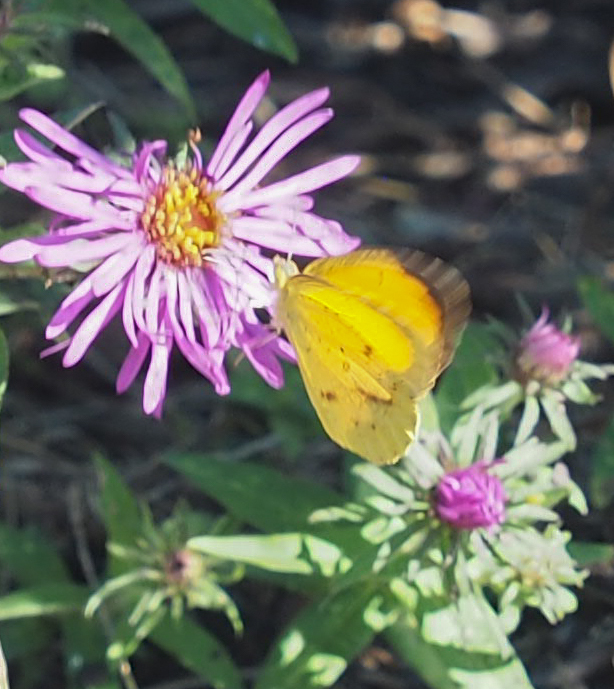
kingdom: Animalia
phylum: Arthropoda
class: Insecta
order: Lepidoptera
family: Pieridae
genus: Abaeis
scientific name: Abaeis nicippe
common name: Sleepy orange
